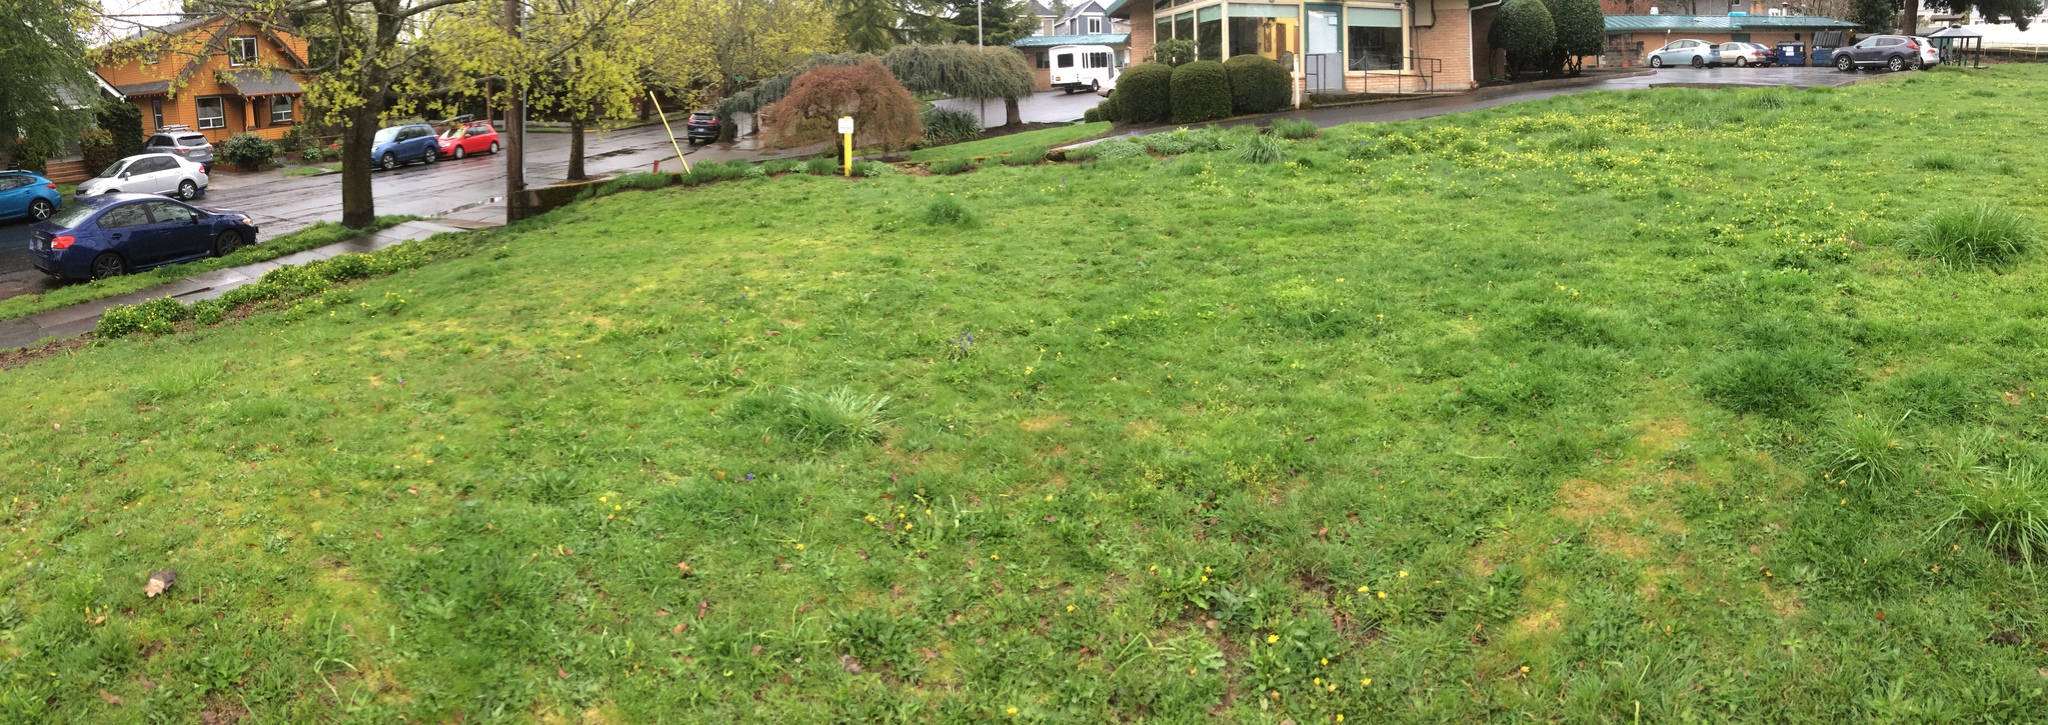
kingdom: Plantae
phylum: Tracheophyta
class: Magnoliopsida
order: Ranunculales
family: Ranunculaceae
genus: Ficaria
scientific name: Ficaria verna
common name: Lesser celandine
